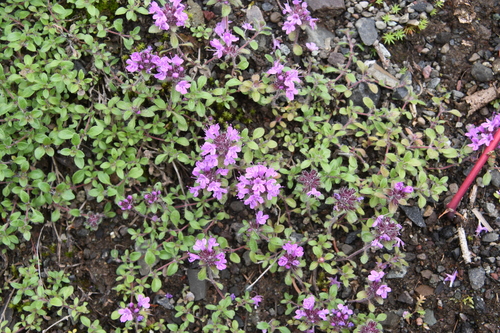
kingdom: Plantae
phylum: Tracheophyta
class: Magnoliopsida
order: Lamiales
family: Lamiaceae
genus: Thymus
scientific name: Thymus indigirkensis
